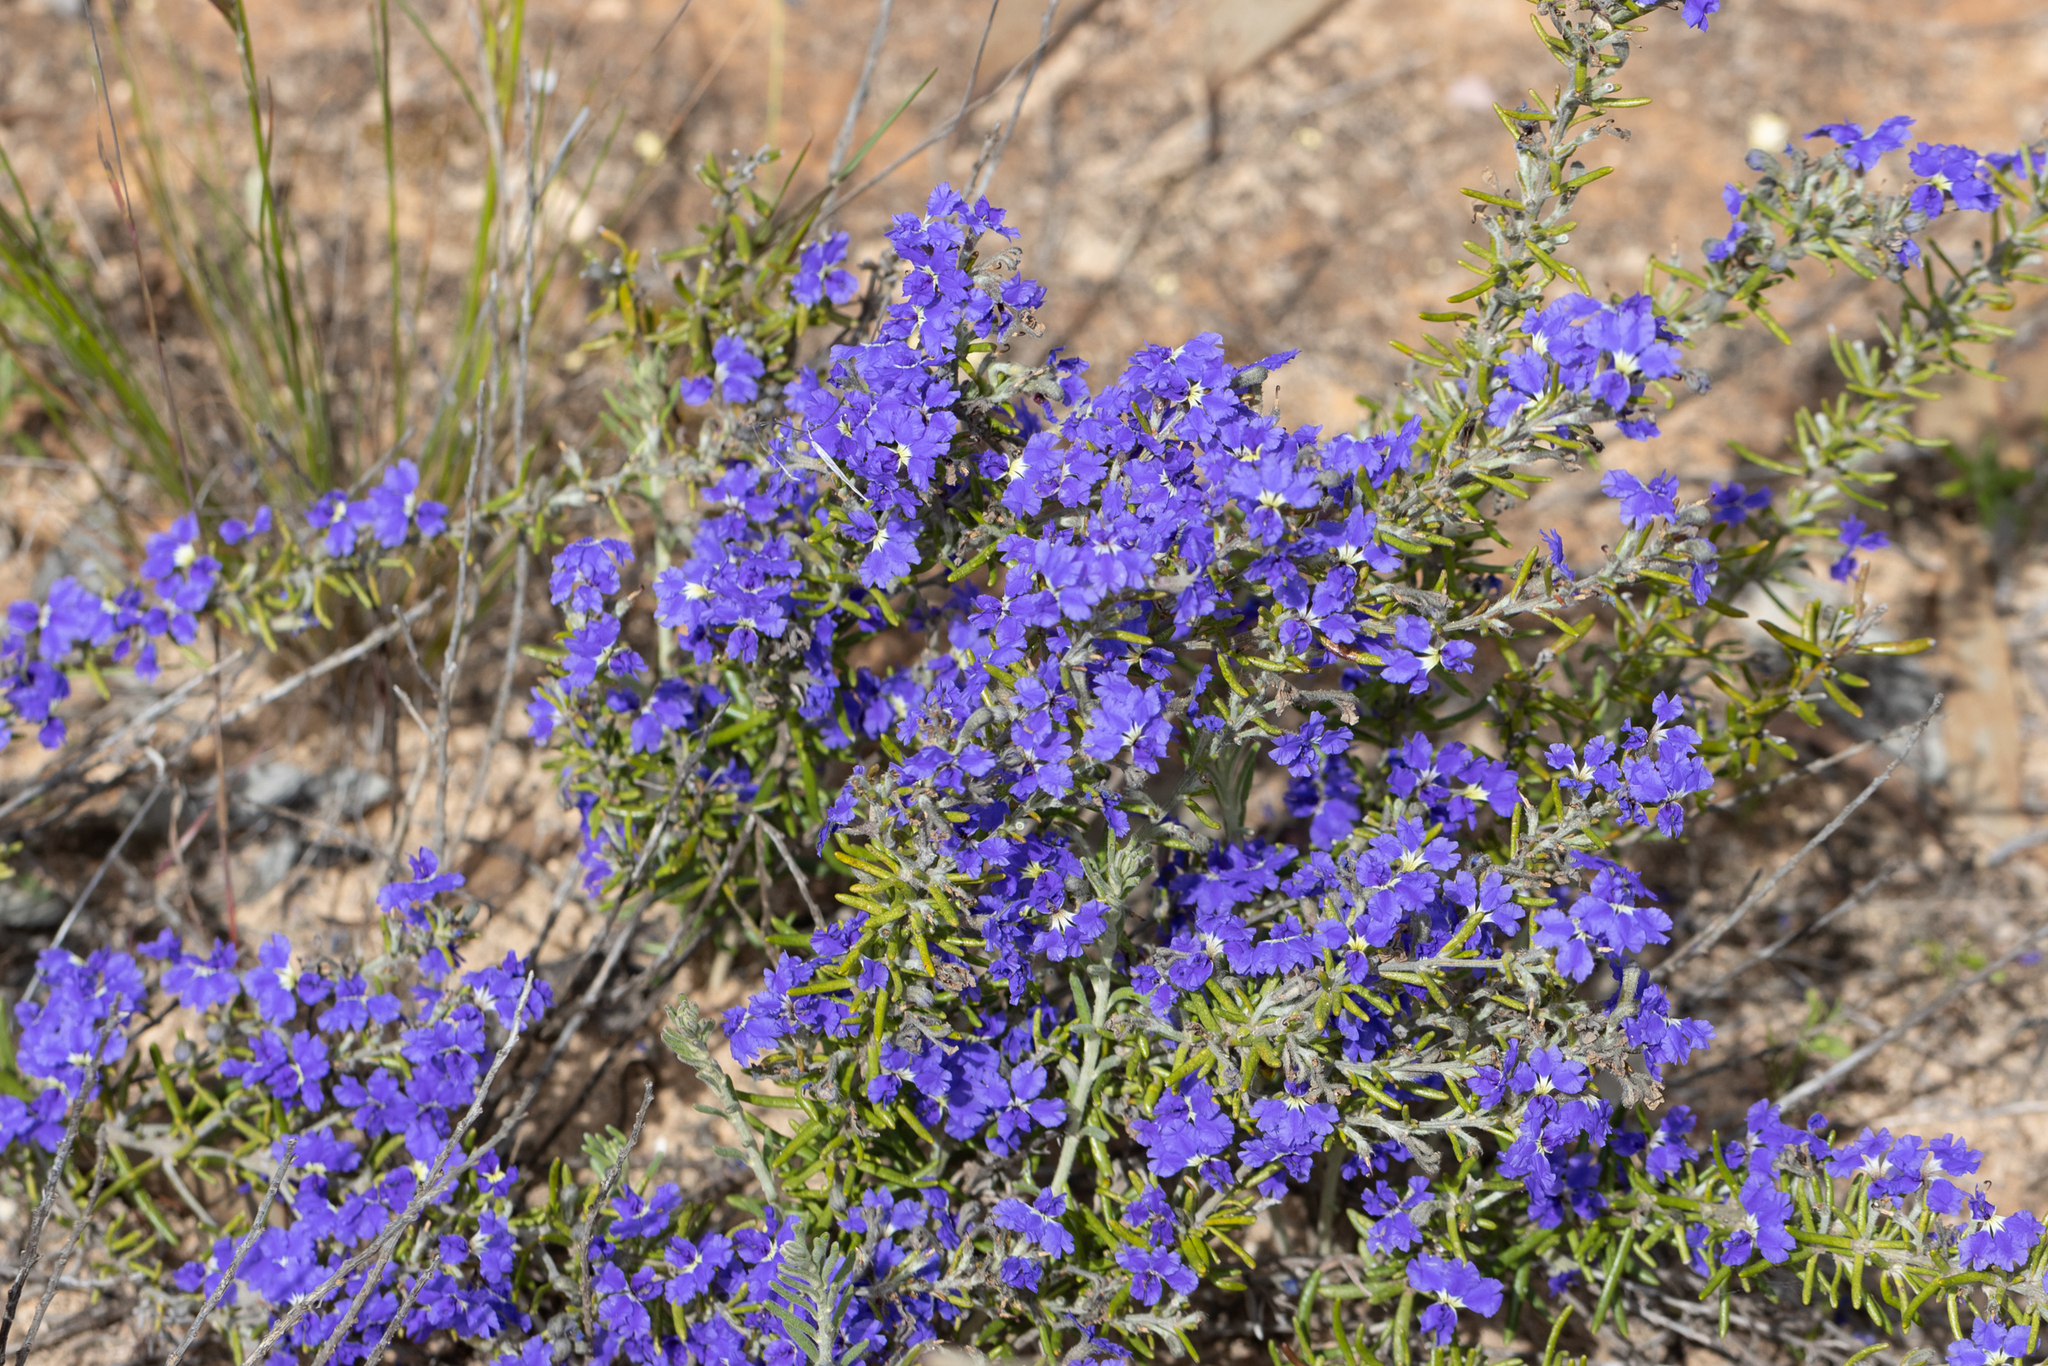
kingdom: Plantae
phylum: Tracheophyta
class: Magnoliopsida
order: Asterales
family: Goodeniaceae
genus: Dampiera
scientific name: Dampiera rosmarinifolia
